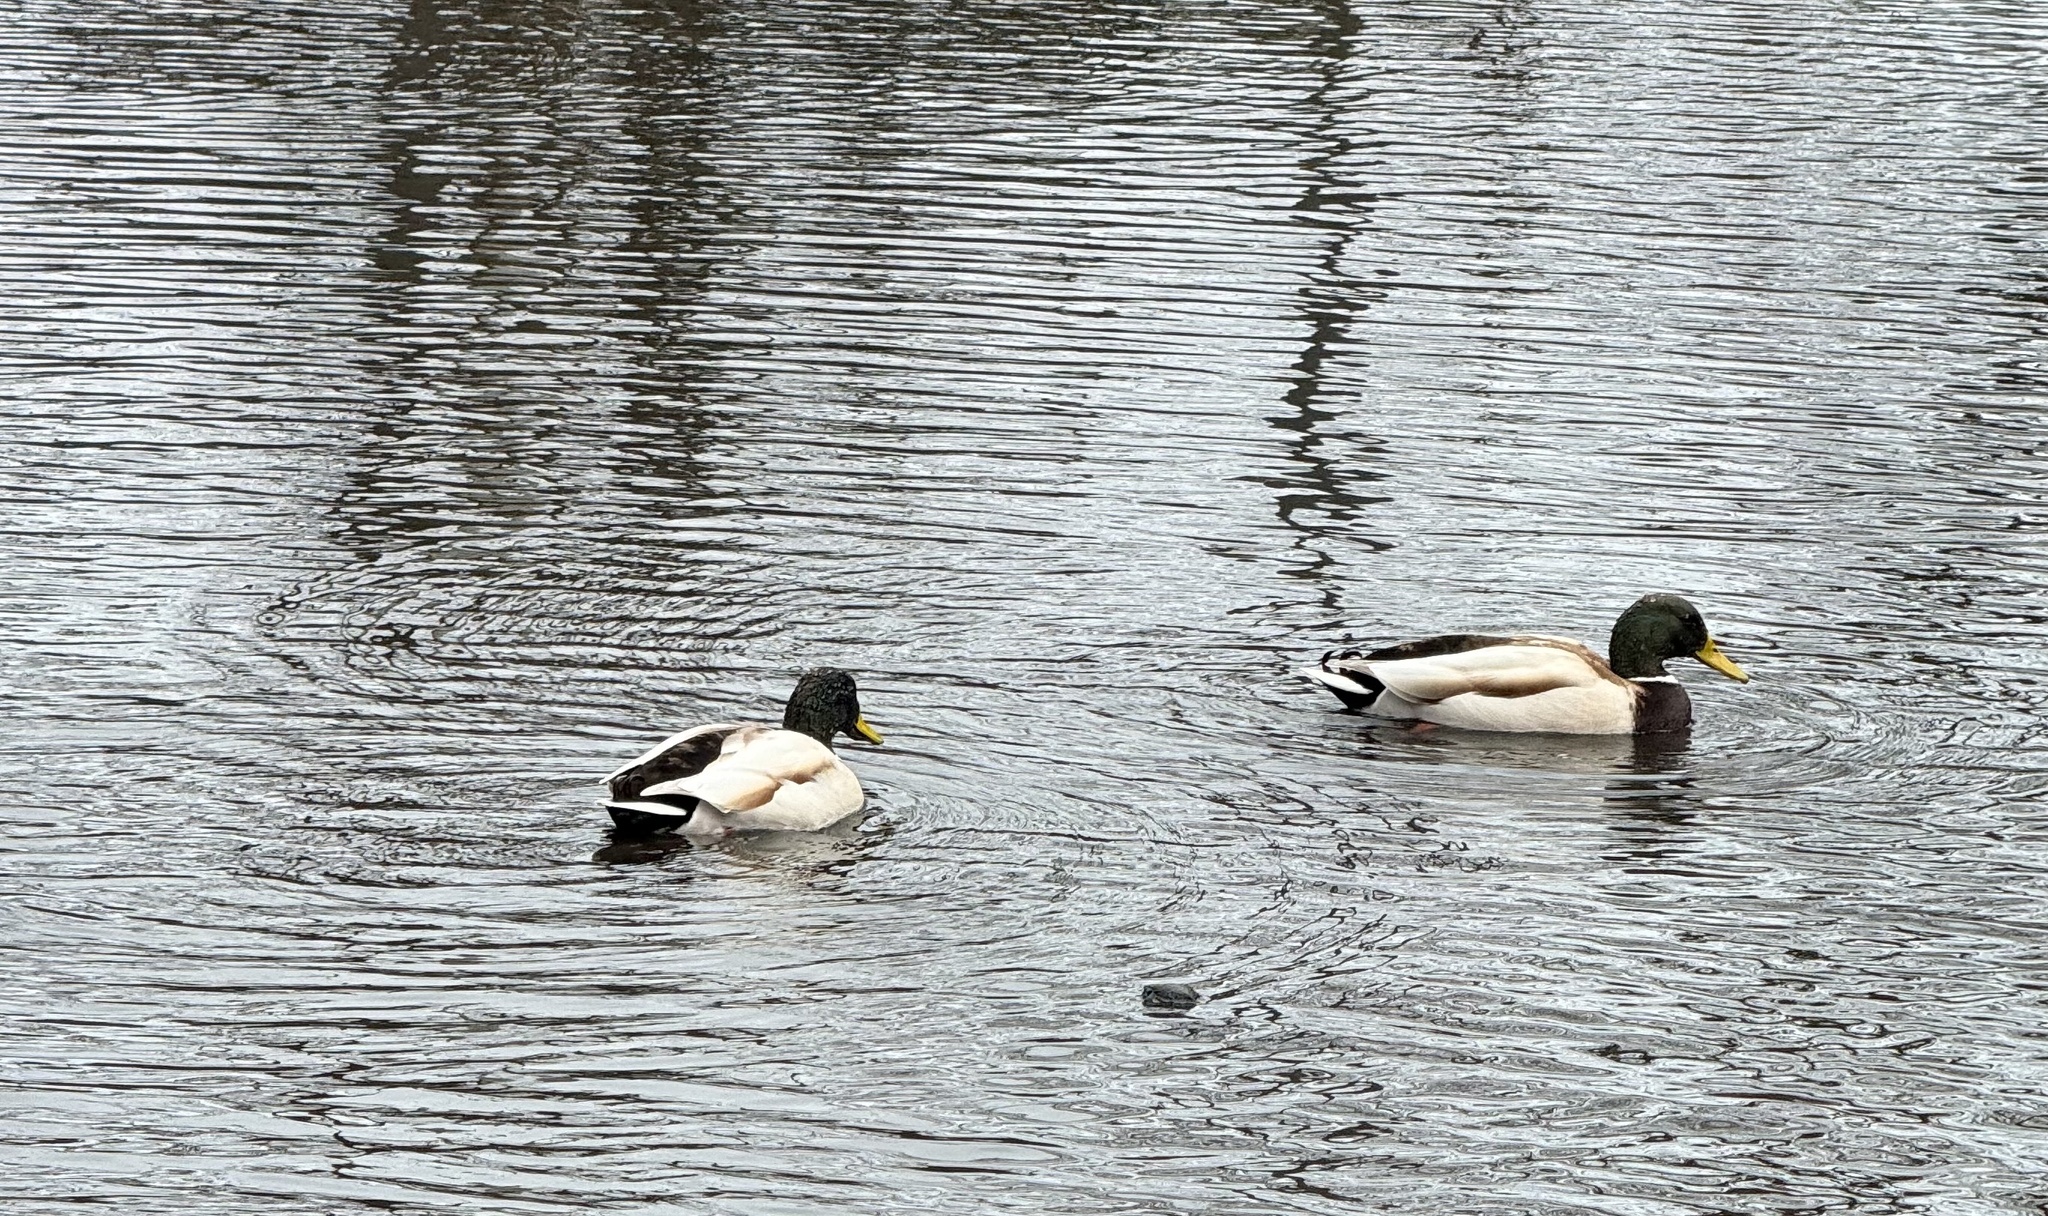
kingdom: Animalia
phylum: Chordata
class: Aves
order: Anseriformes
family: Anatidae
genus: Anas
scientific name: Anas platyrhynchos
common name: Mallard
